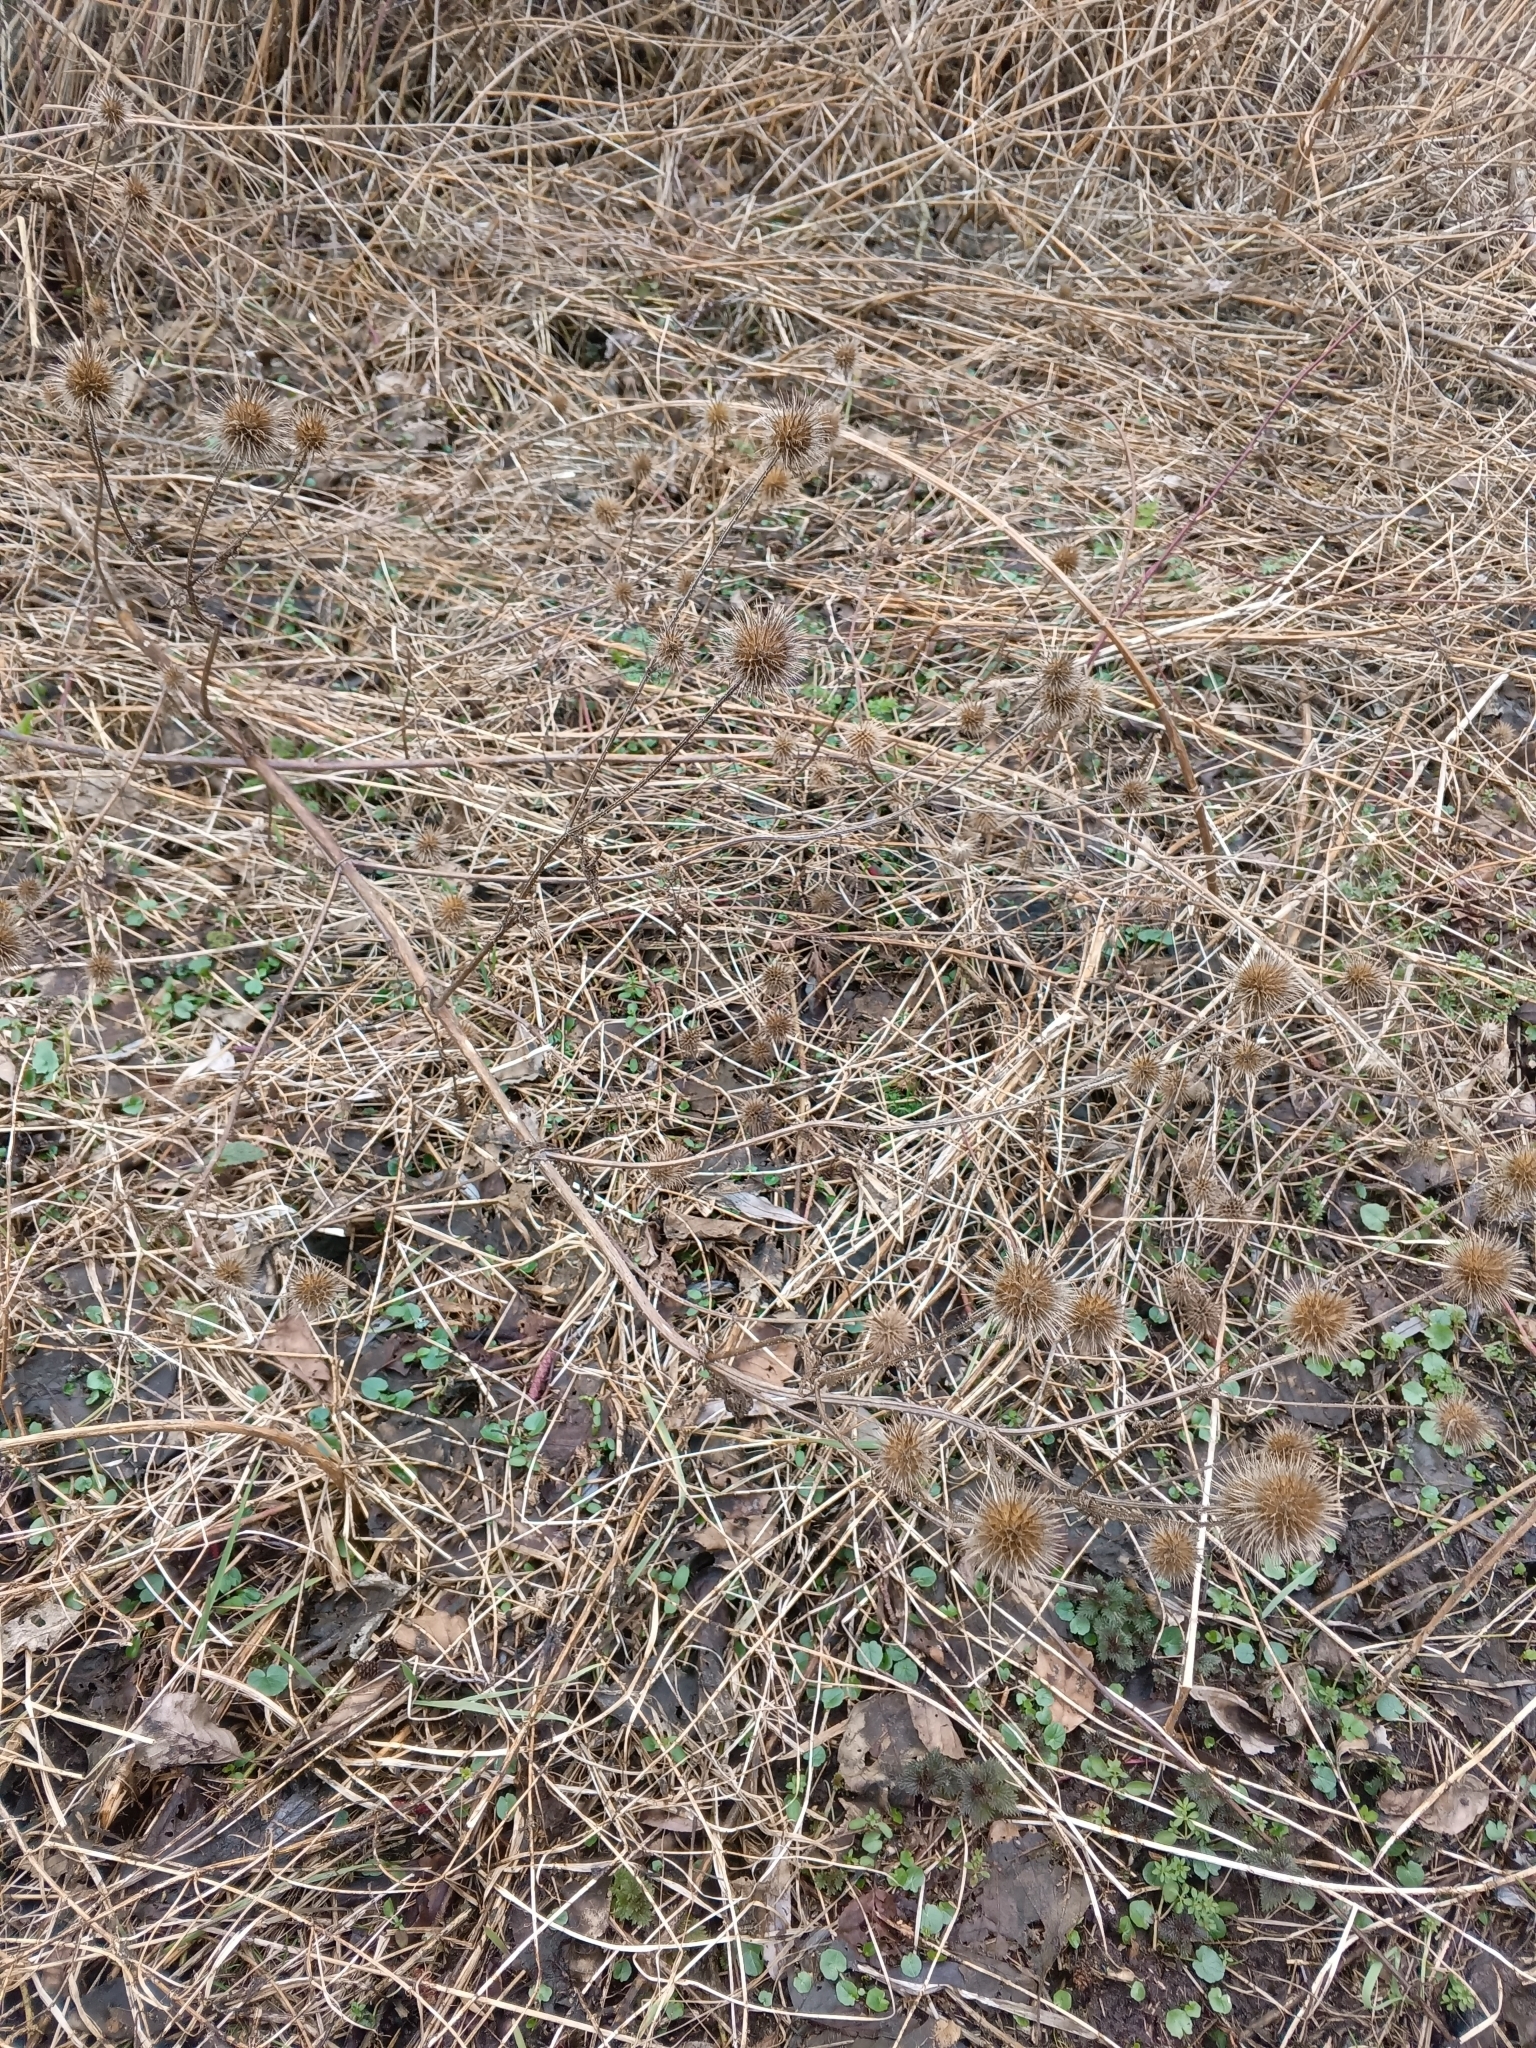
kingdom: Plantae
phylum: Tracheophyta
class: Magnoliopsida
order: Dipsacales
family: Caprifoliaceae
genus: Dipsacus
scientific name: Dipsacus strigosus
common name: Yellow-flowered teasel
